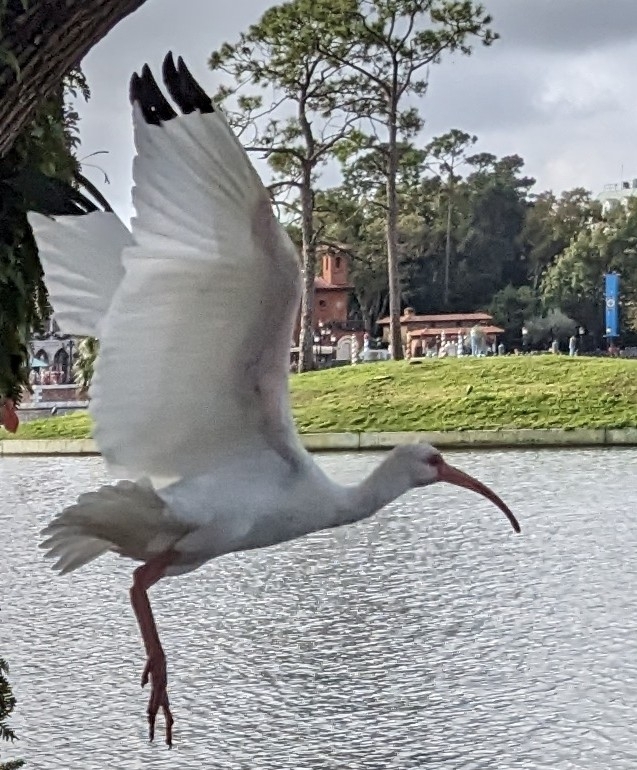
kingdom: Animalia
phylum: Chordata
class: Aves
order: Pelecaniformes
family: Threskiornithidae
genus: Eudocimus
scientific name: Eudocimus albus
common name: White ibis
